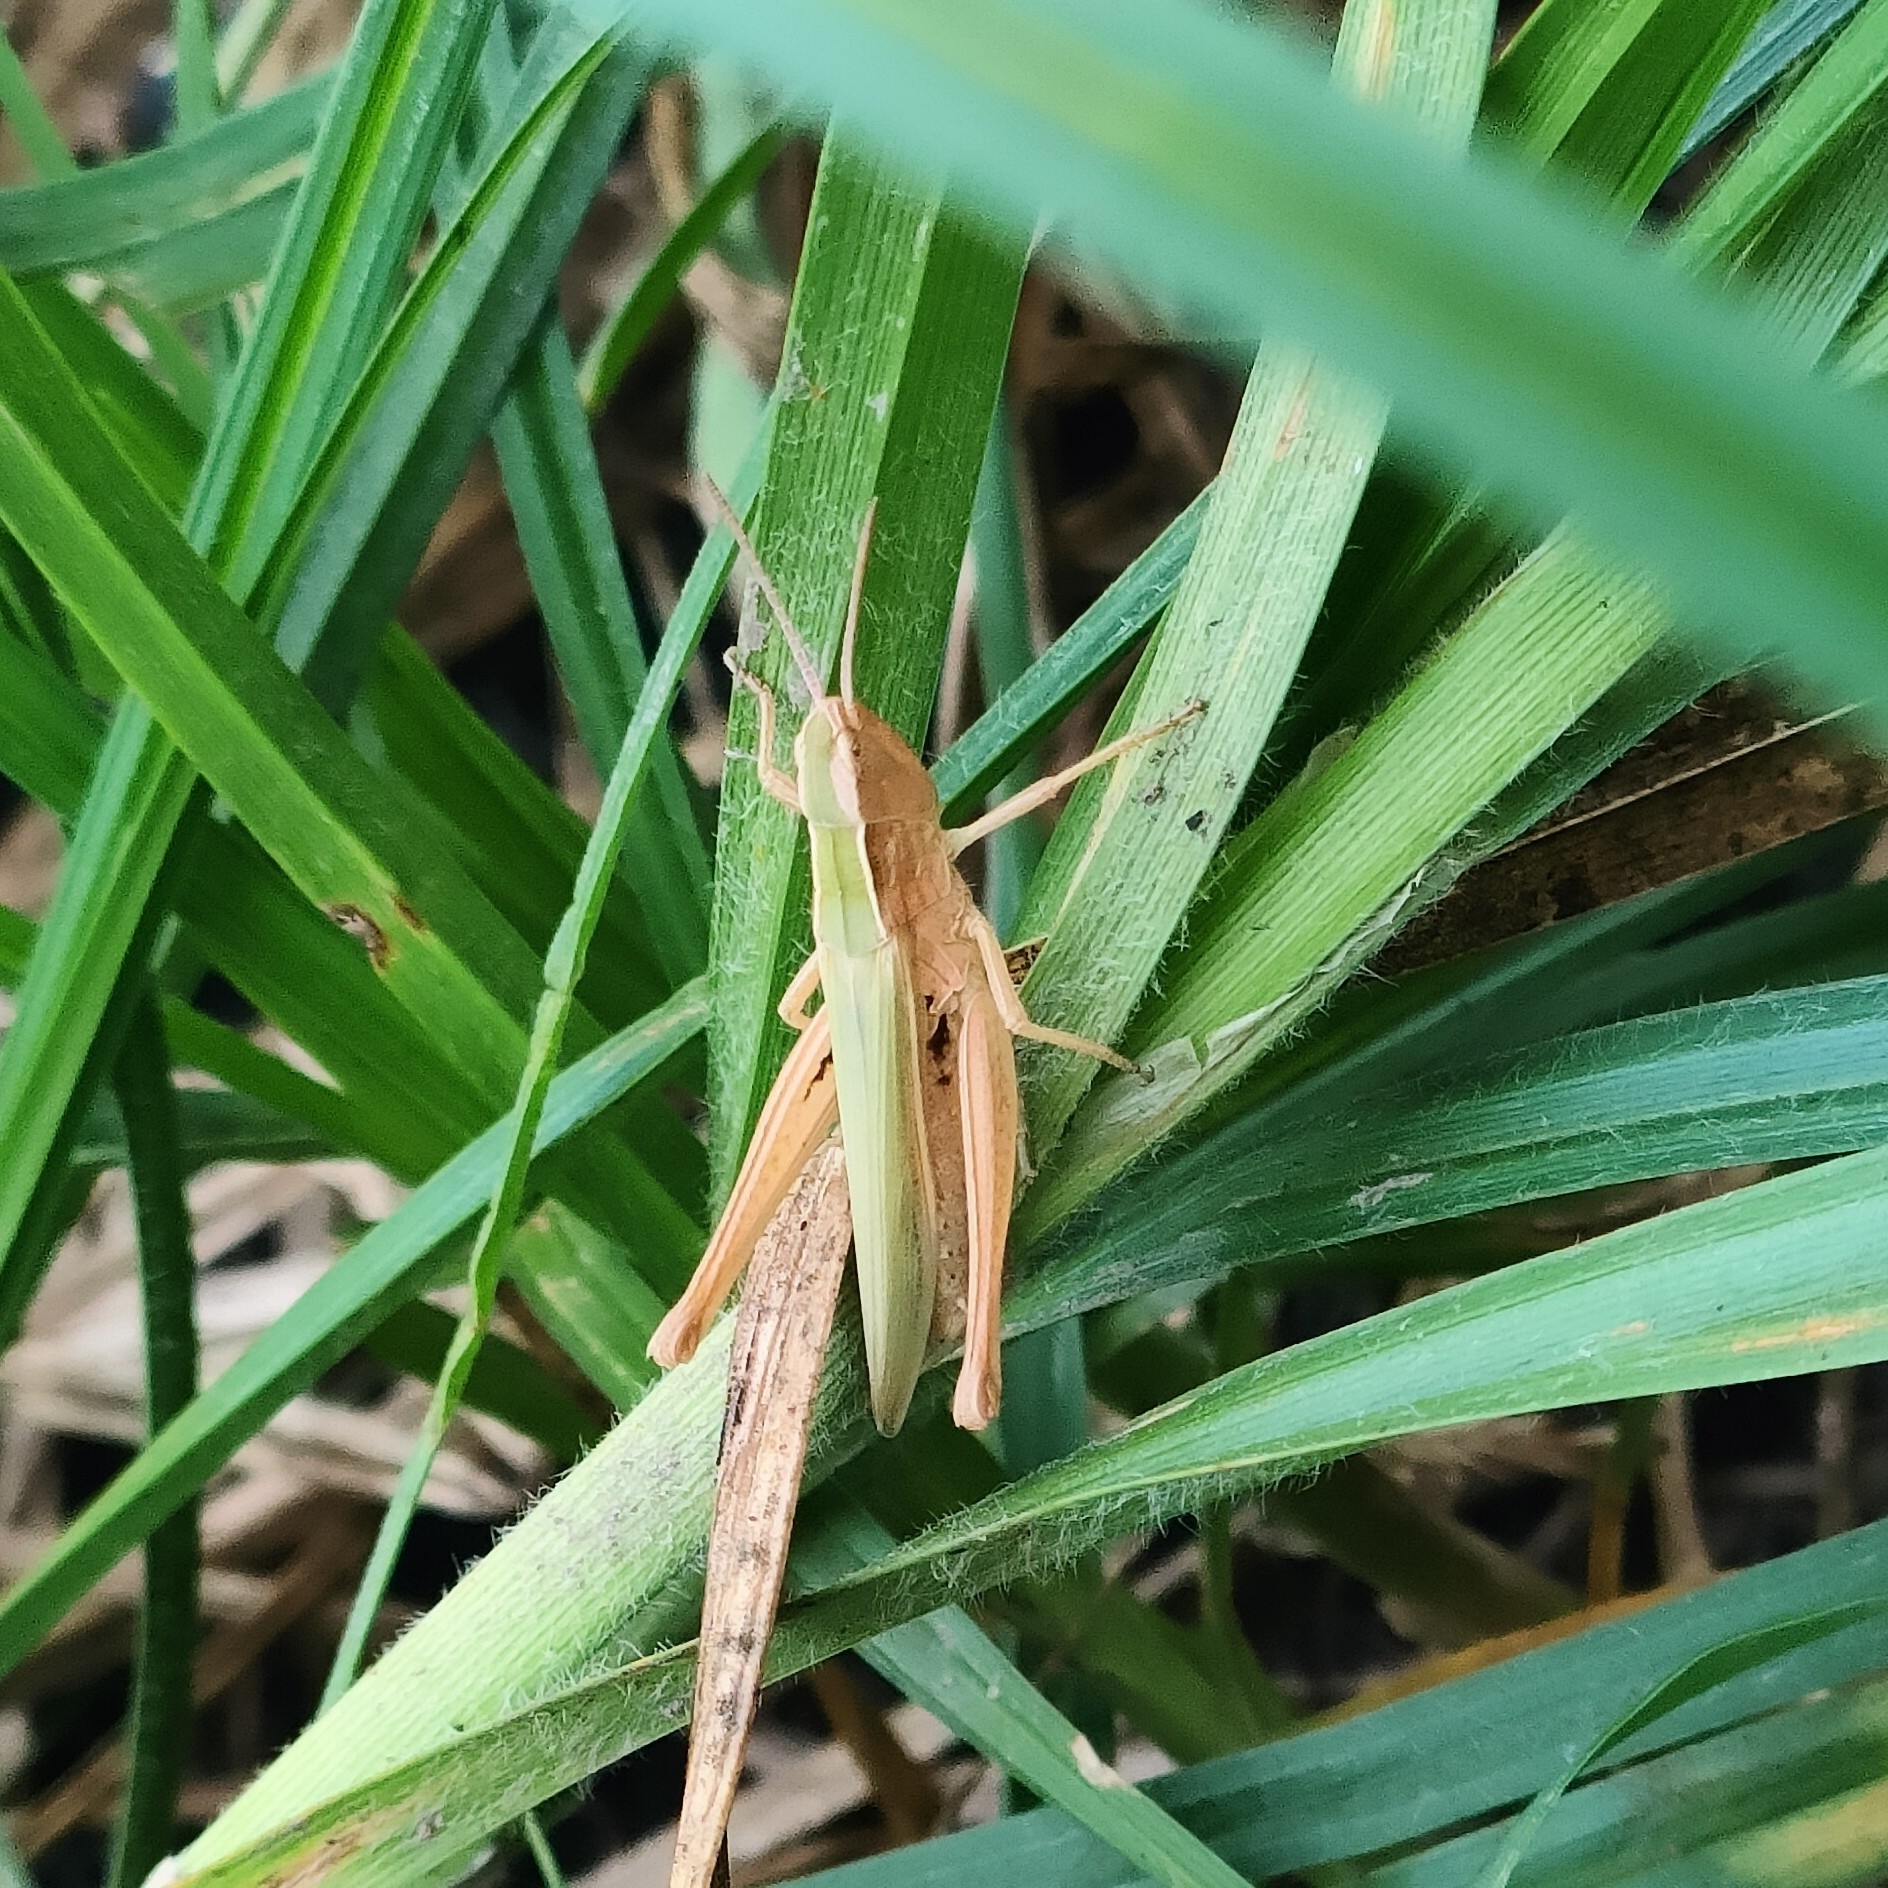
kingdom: Animalia
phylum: Arthropoda
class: Insecta
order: Orthoptera
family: Acrididae
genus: Chorthippus
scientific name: Chorthippus dorsatus
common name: Steppe grasshopper
